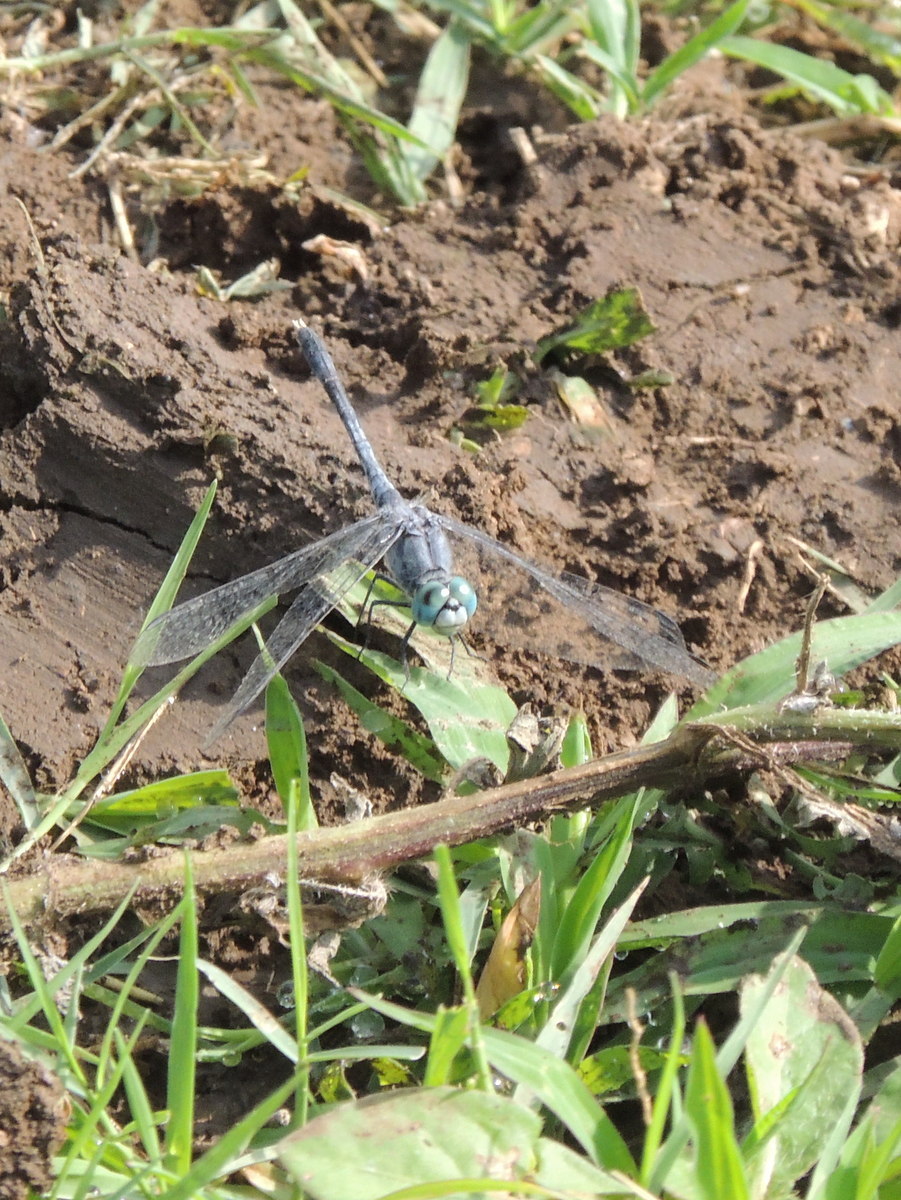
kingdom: Animalia
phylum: Arthropoda
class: Insecta
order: Odonata
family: Libellulidae
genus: Diplacodes
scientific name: Diplacodes trivialis
